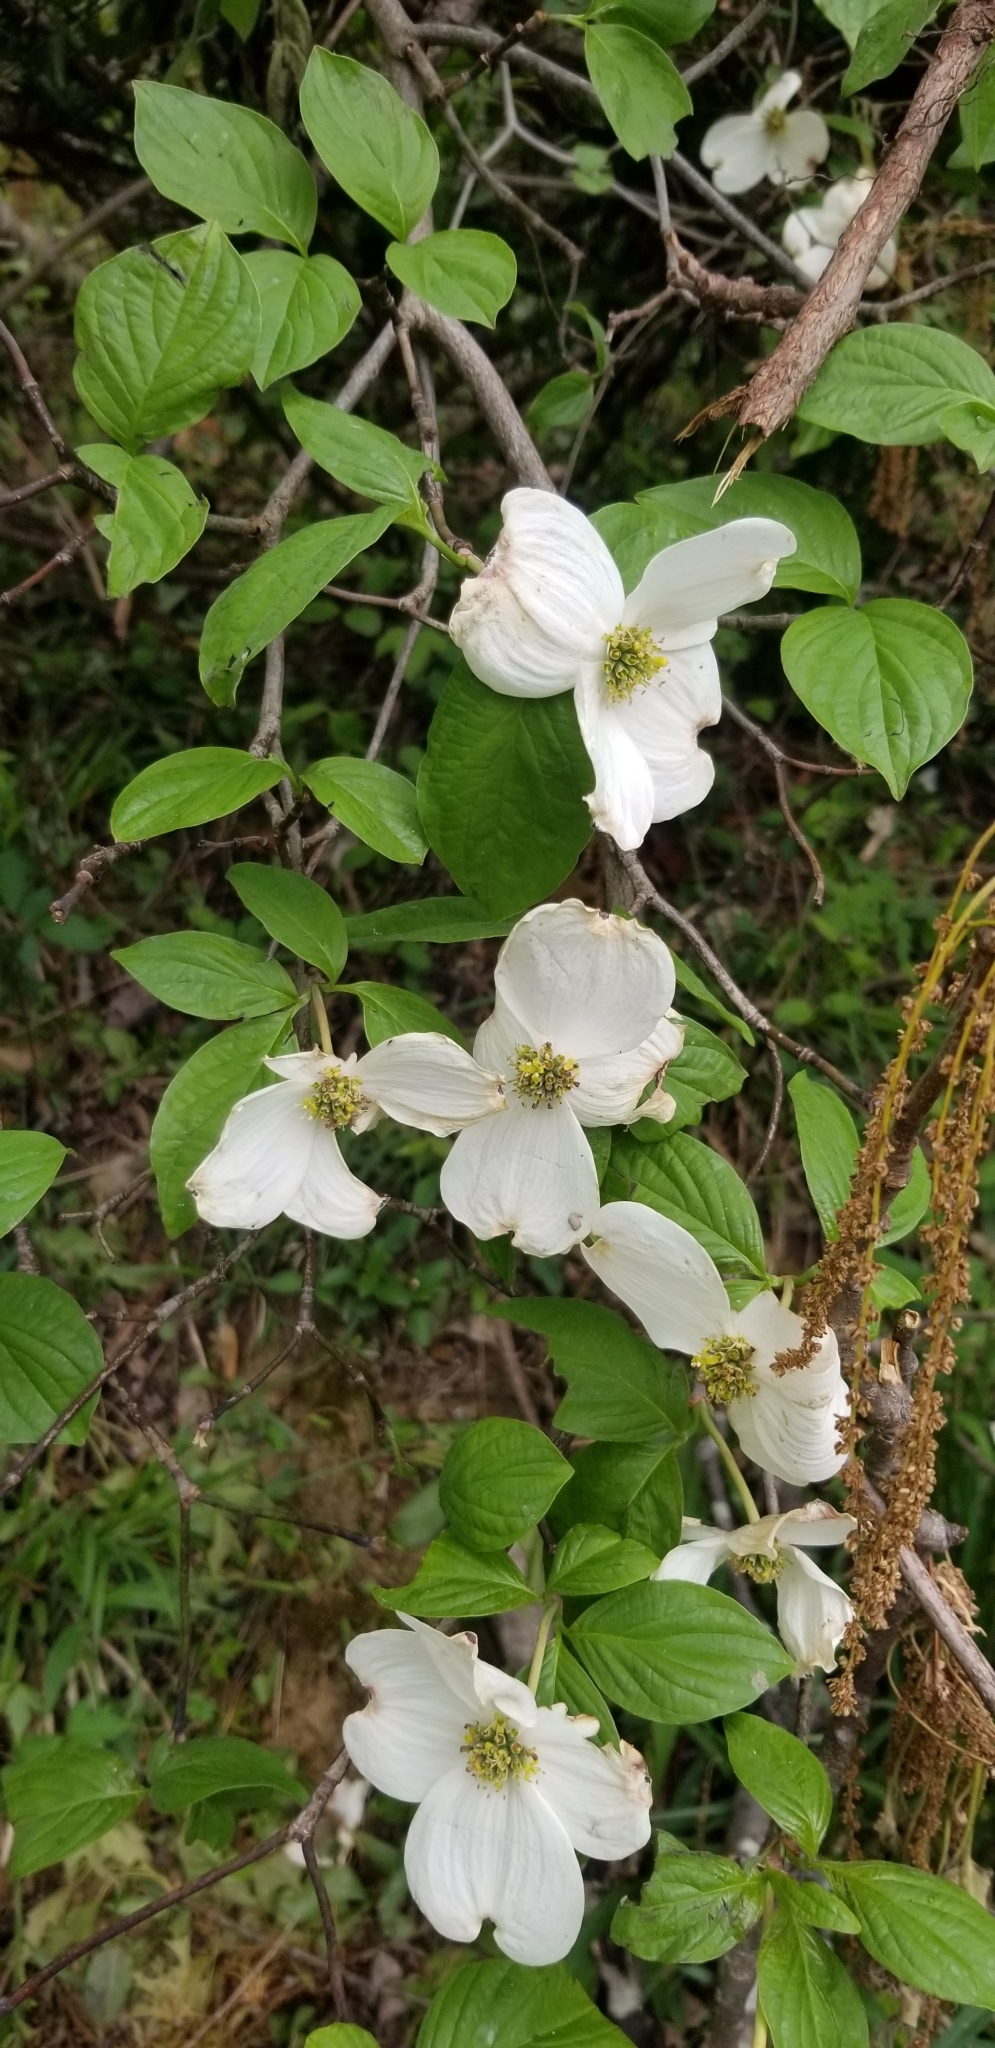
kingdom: Plantae
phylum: Tracheophyta
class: Magnoliopsida
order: Cornales
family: Cornaceae
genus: Cornus
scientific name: Cornus florida
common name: Flowering dogwood
